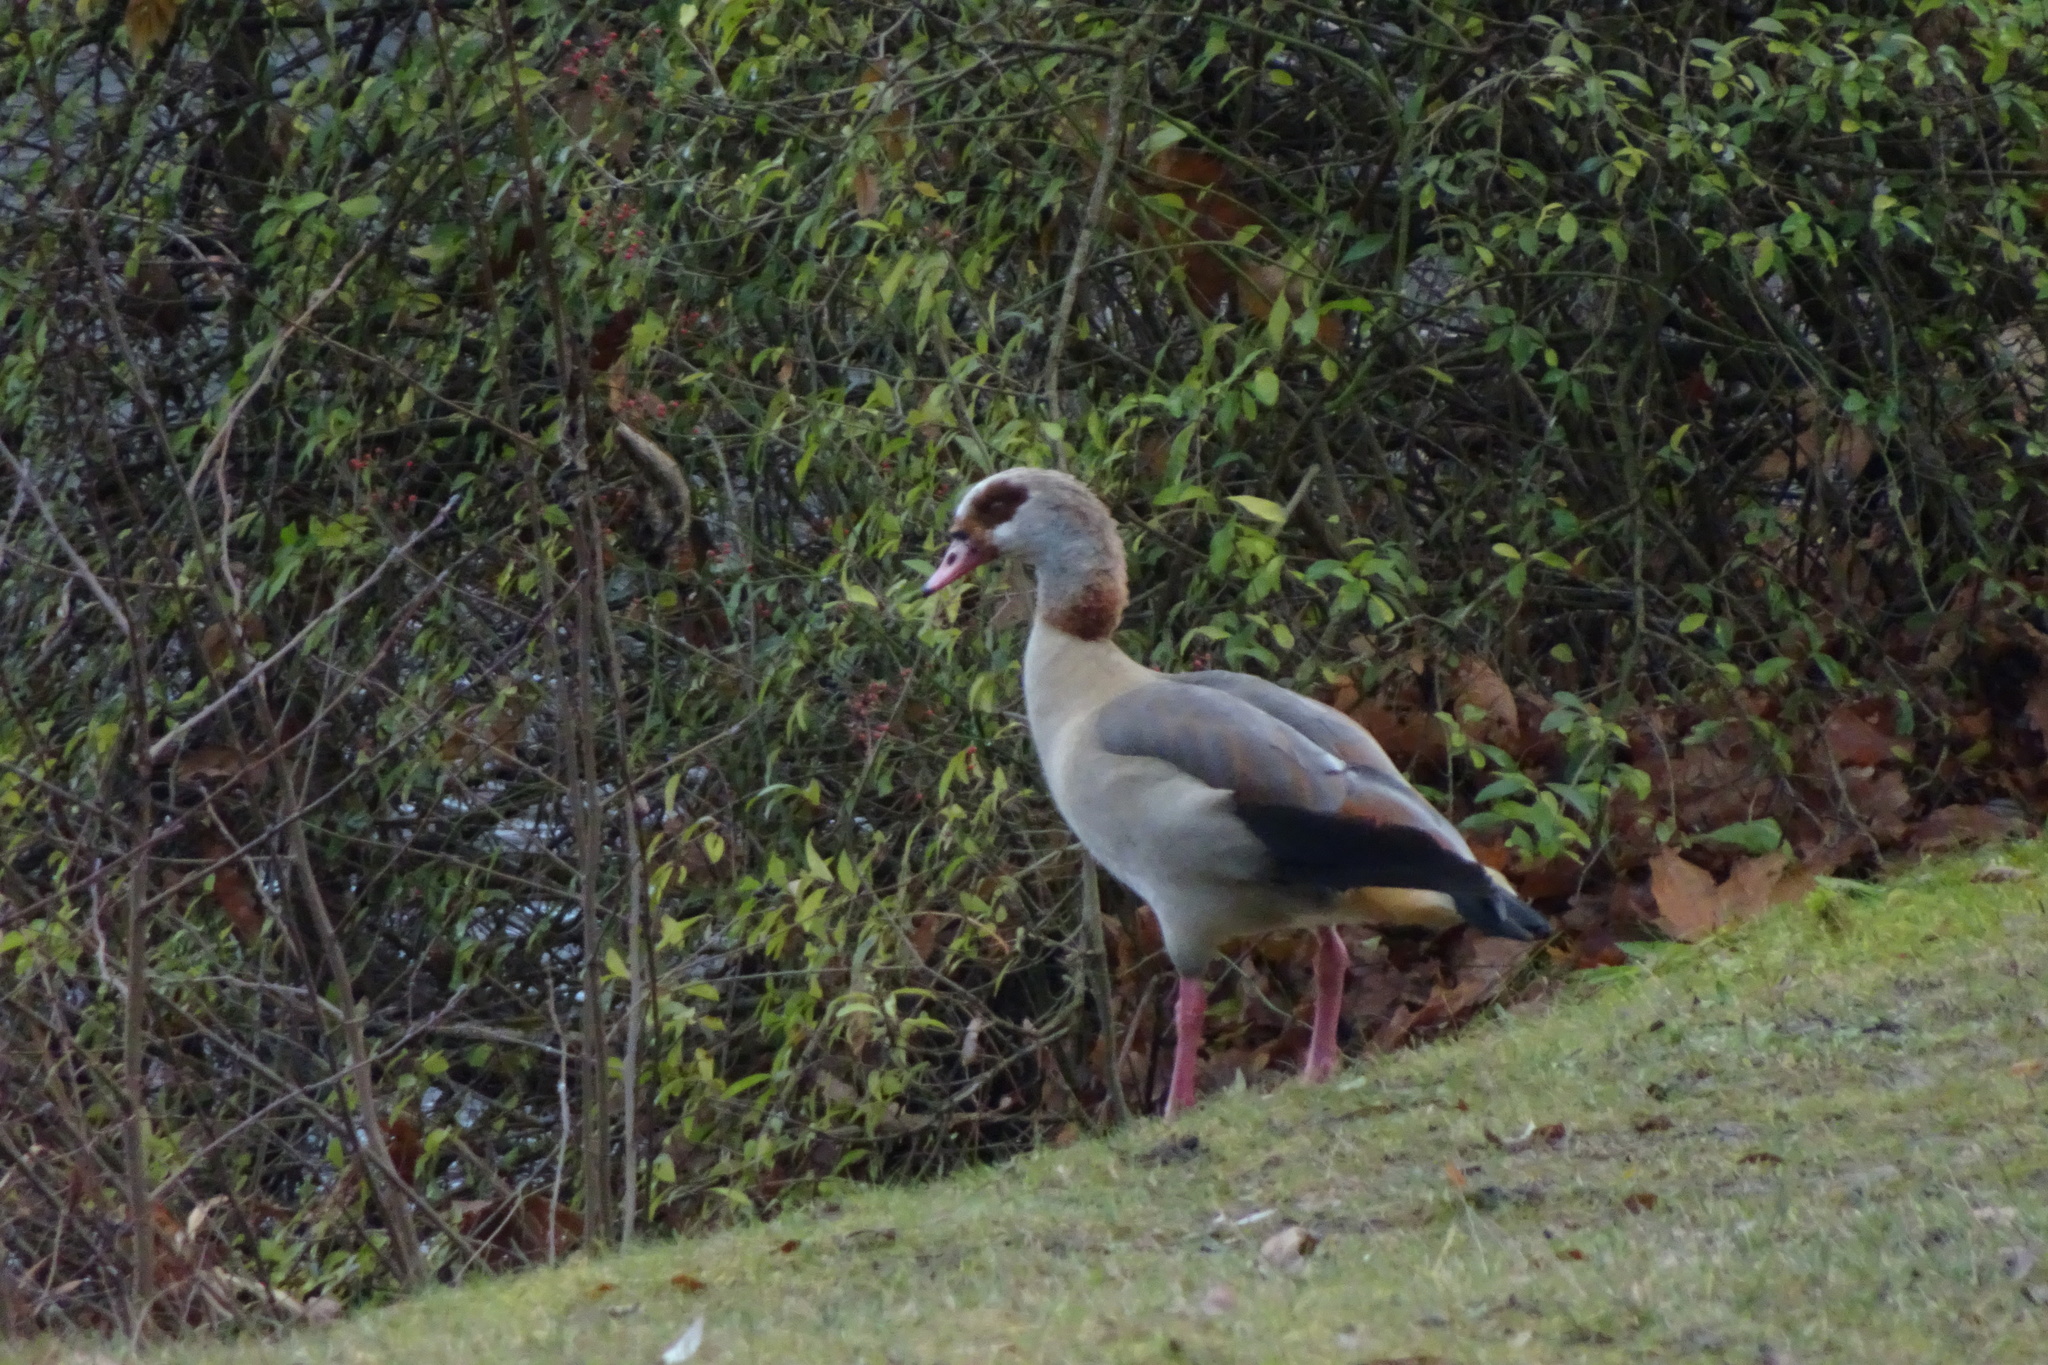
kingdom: Animalia
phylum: Chordata
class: Aves
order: Anseriformes
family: Anatidae
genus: Alopochen
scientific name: Alopochen aegyptiaca
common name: Egyptian goose
